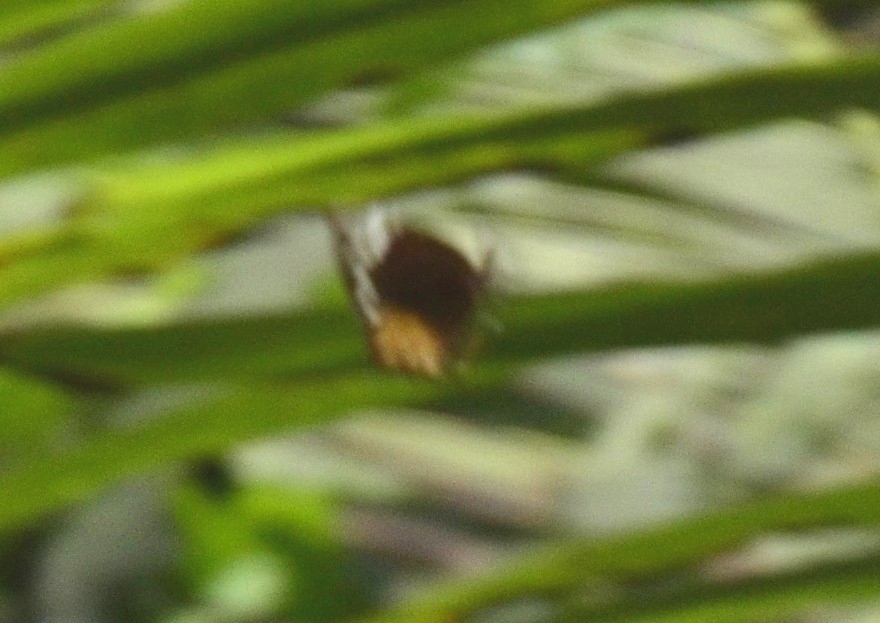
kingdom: Animalia
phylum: Arthropoda
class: Insecta
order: Lepidoptera
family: Nymphalidae
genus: Elymnias
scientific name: Elymnias caudata
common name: Tailed palmfly
